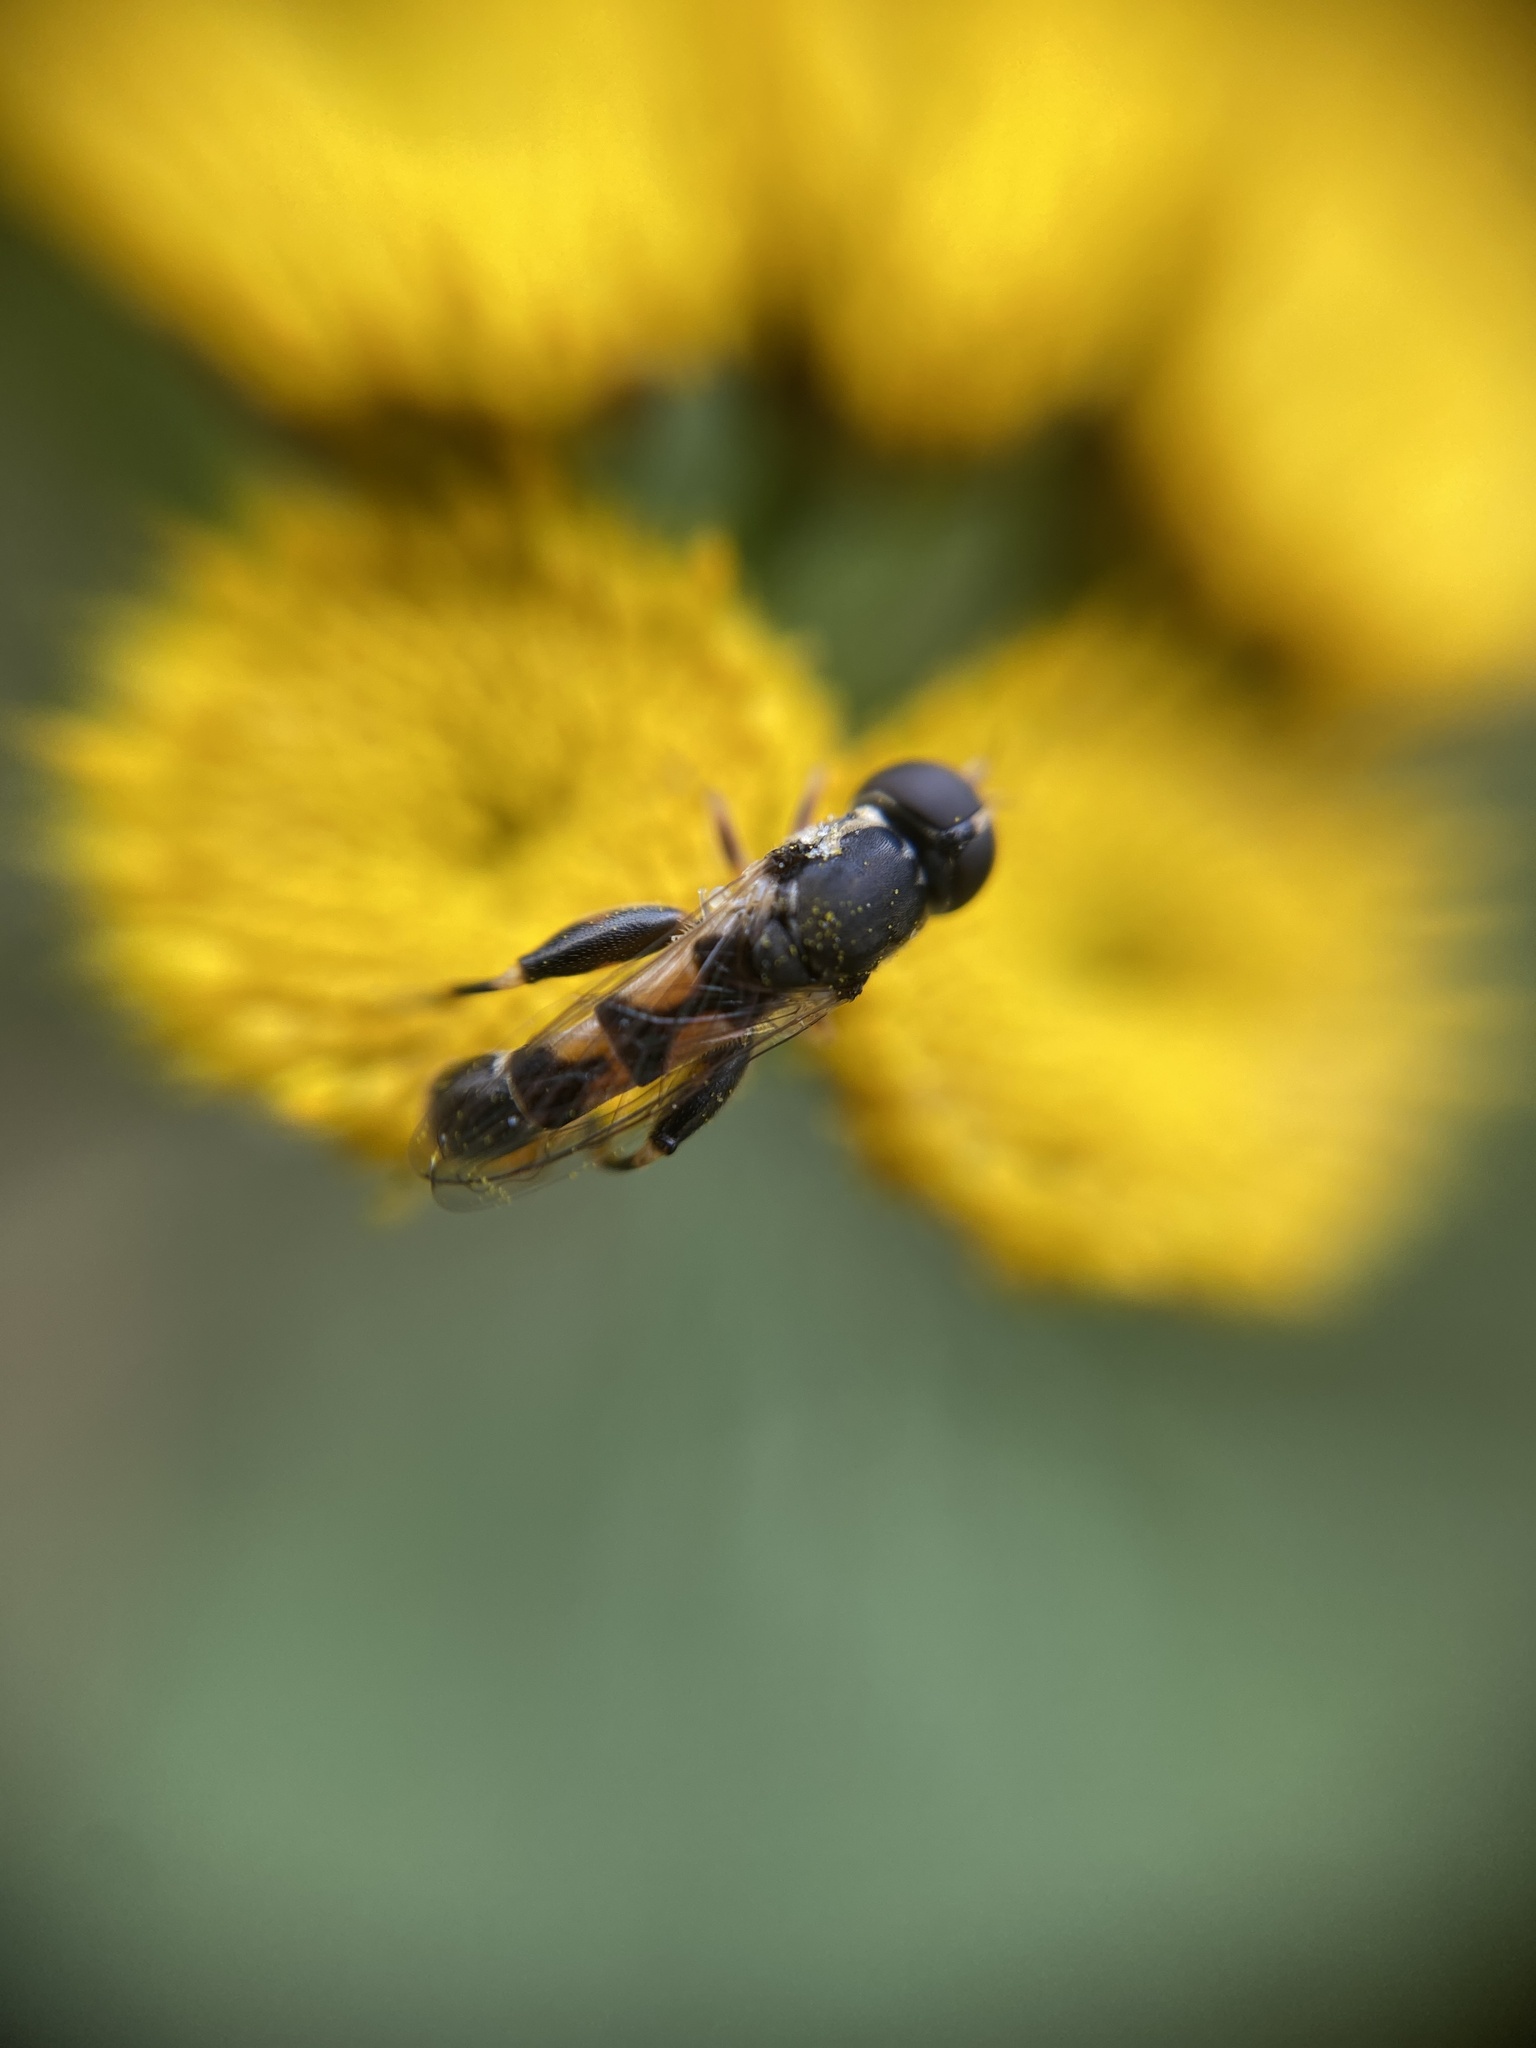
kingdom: Animalia
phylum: Arthropoda
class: Insecta
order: Diptera
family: Syrphidae
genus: Syritta
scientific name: Syritta pipiens
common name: Hover fly
